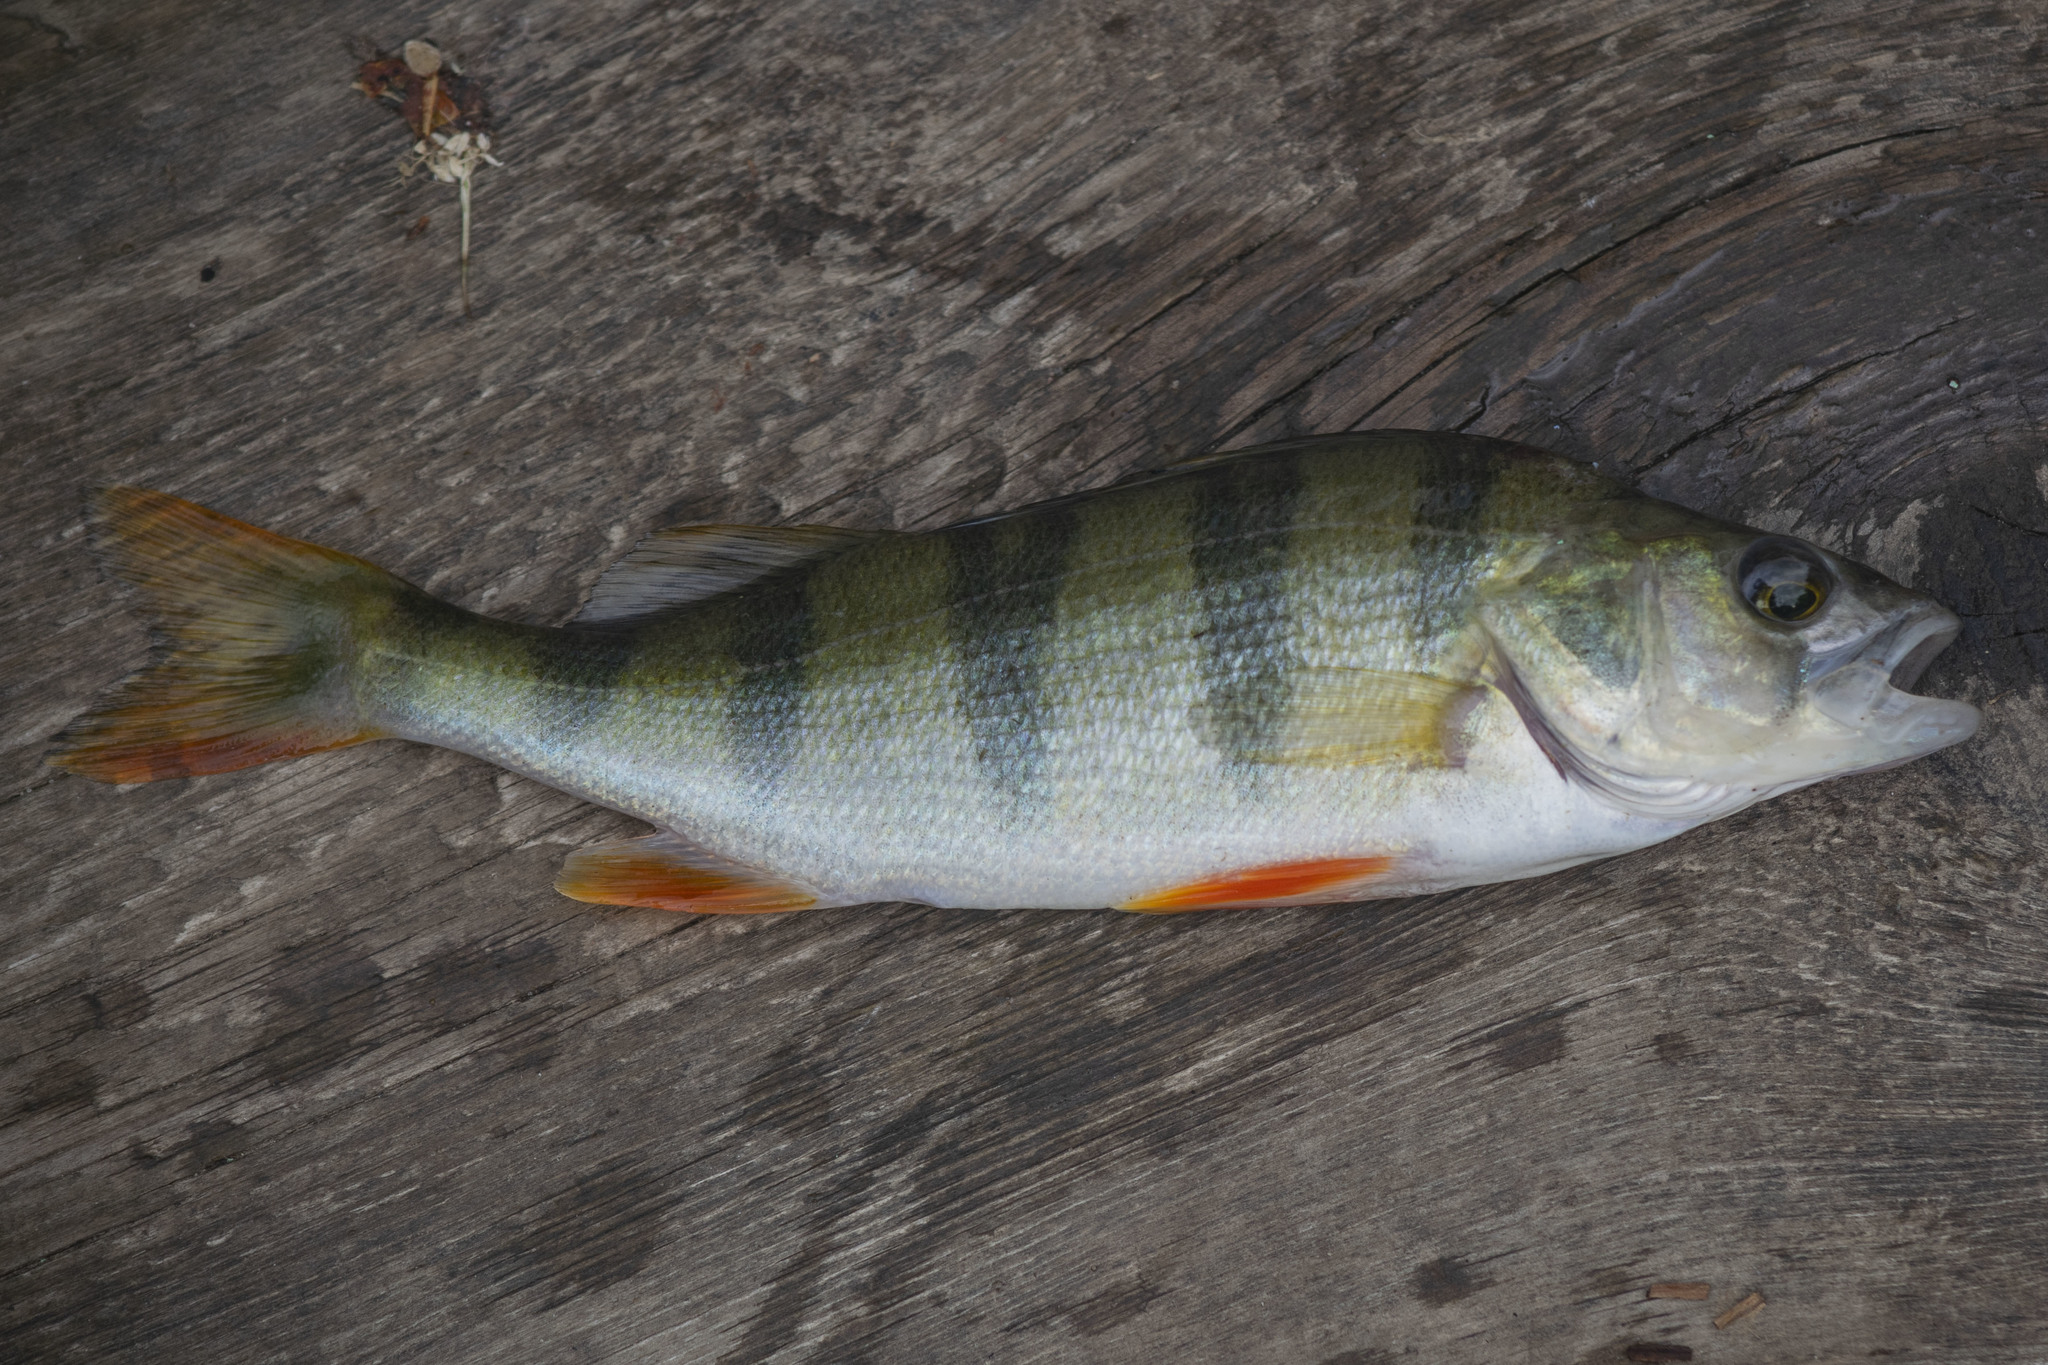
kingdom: Animalia
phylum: Chordata
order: Perciformes
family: Percidae
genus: Perca
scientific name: Perca fluviatilis
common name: Perch
